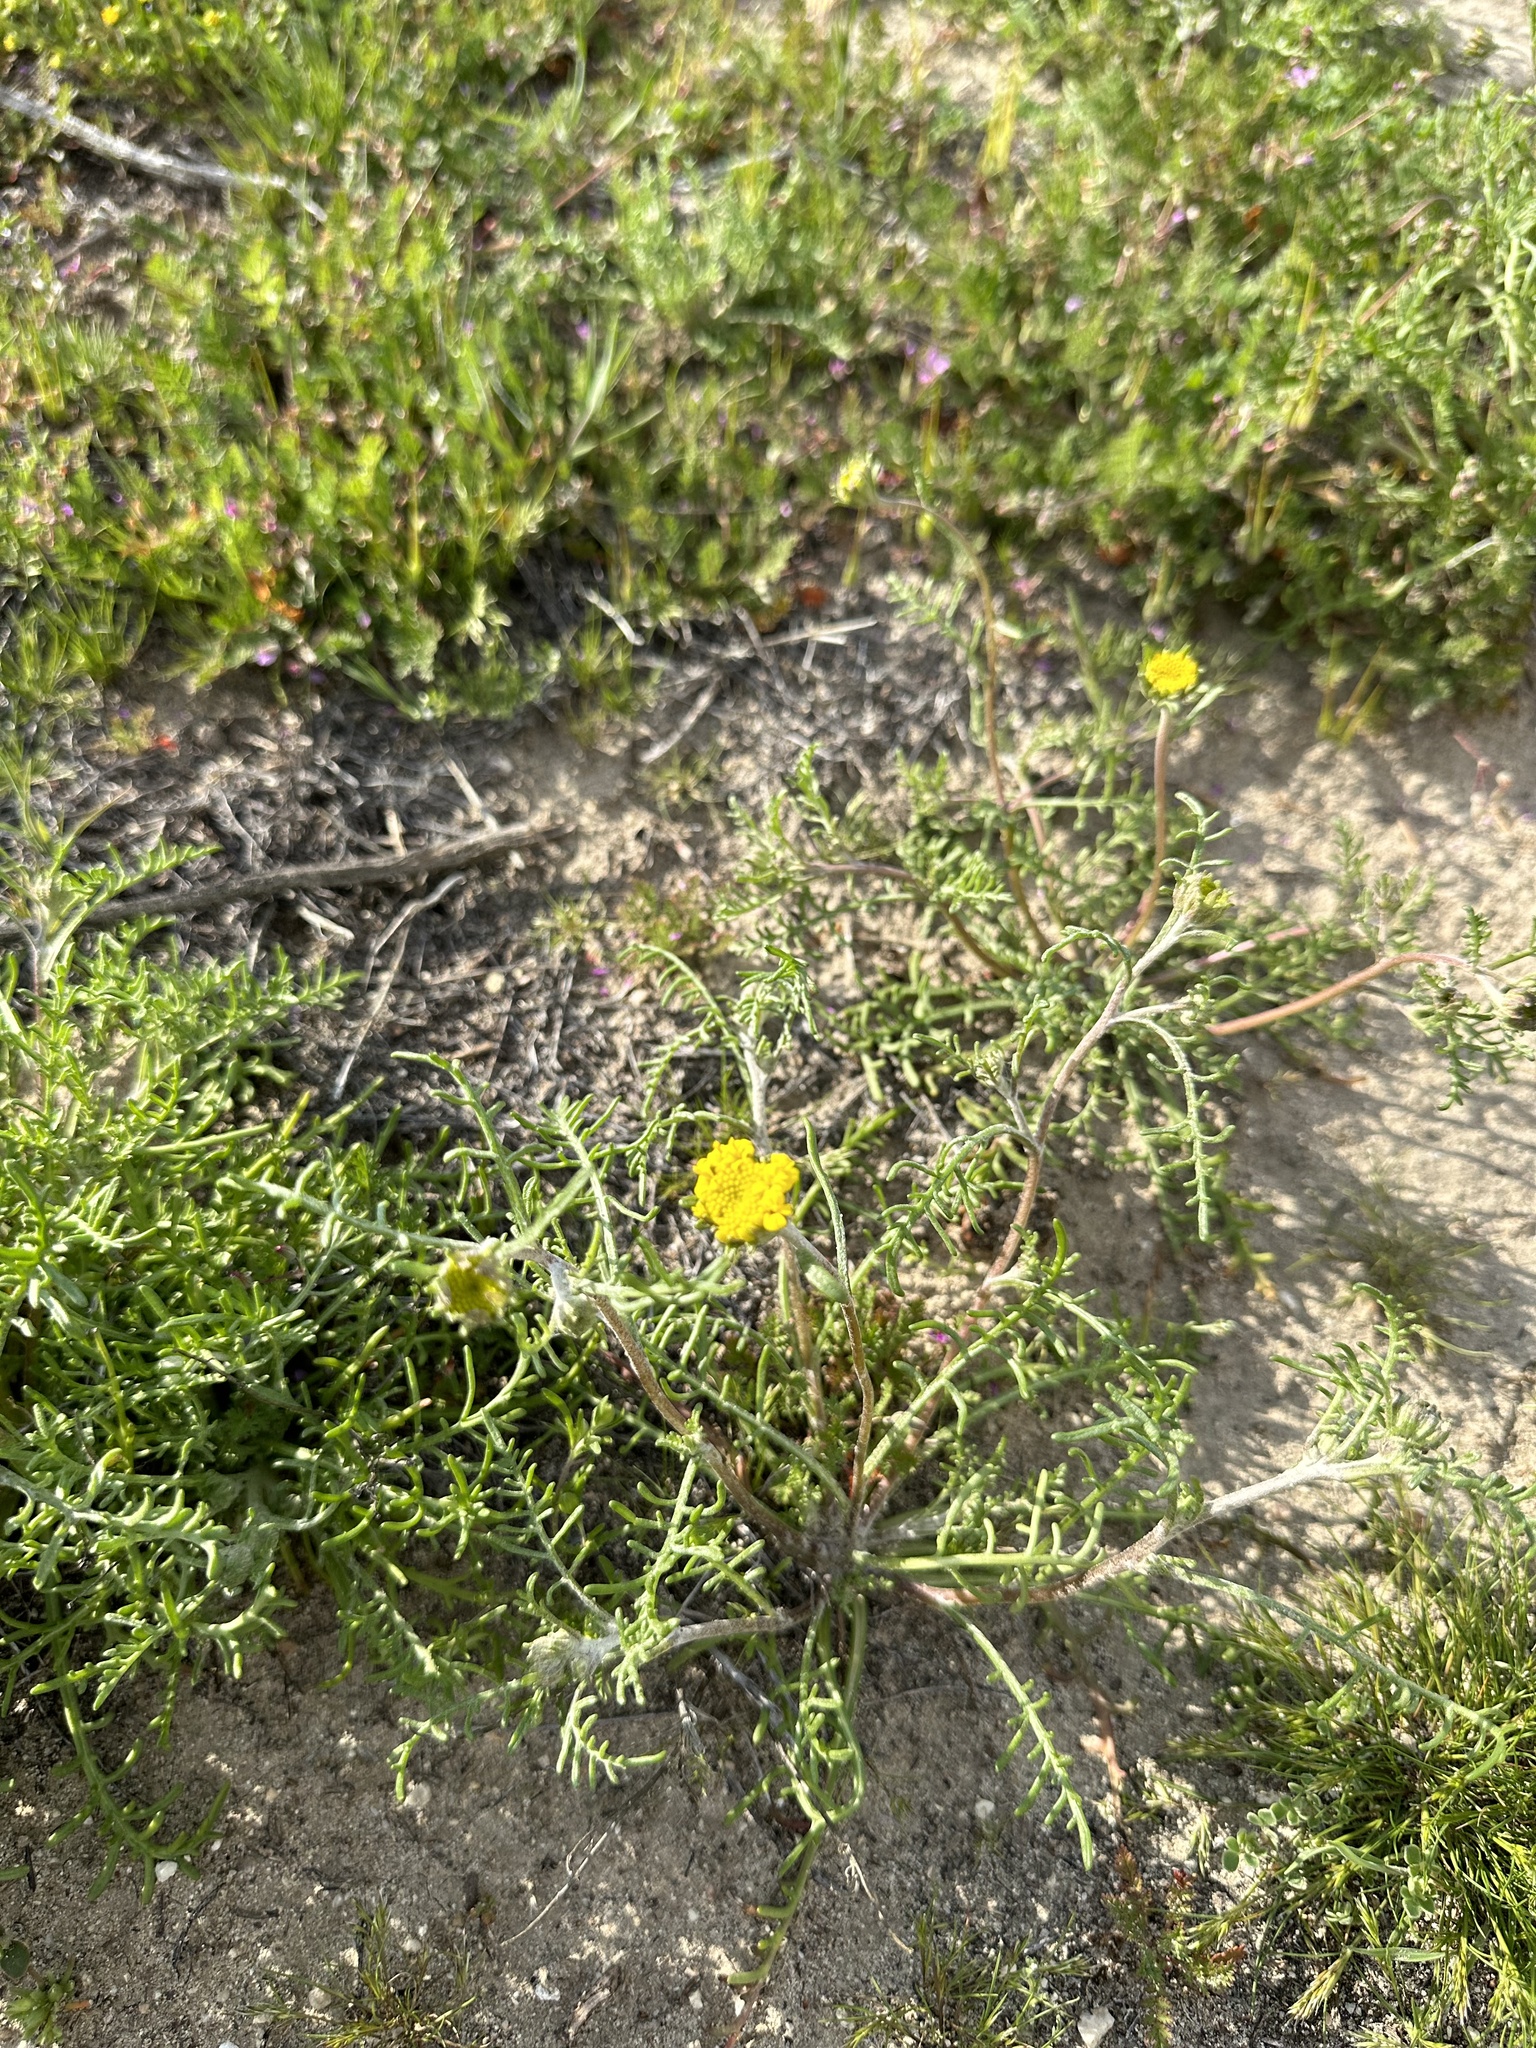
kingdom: Plantae
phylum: Tracheophyta
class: Magnoliopsida
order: Asterales
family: Asteraceae
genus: Chaenactis
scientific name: Chaenactis glabriuscula
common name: Yellow pincushion
